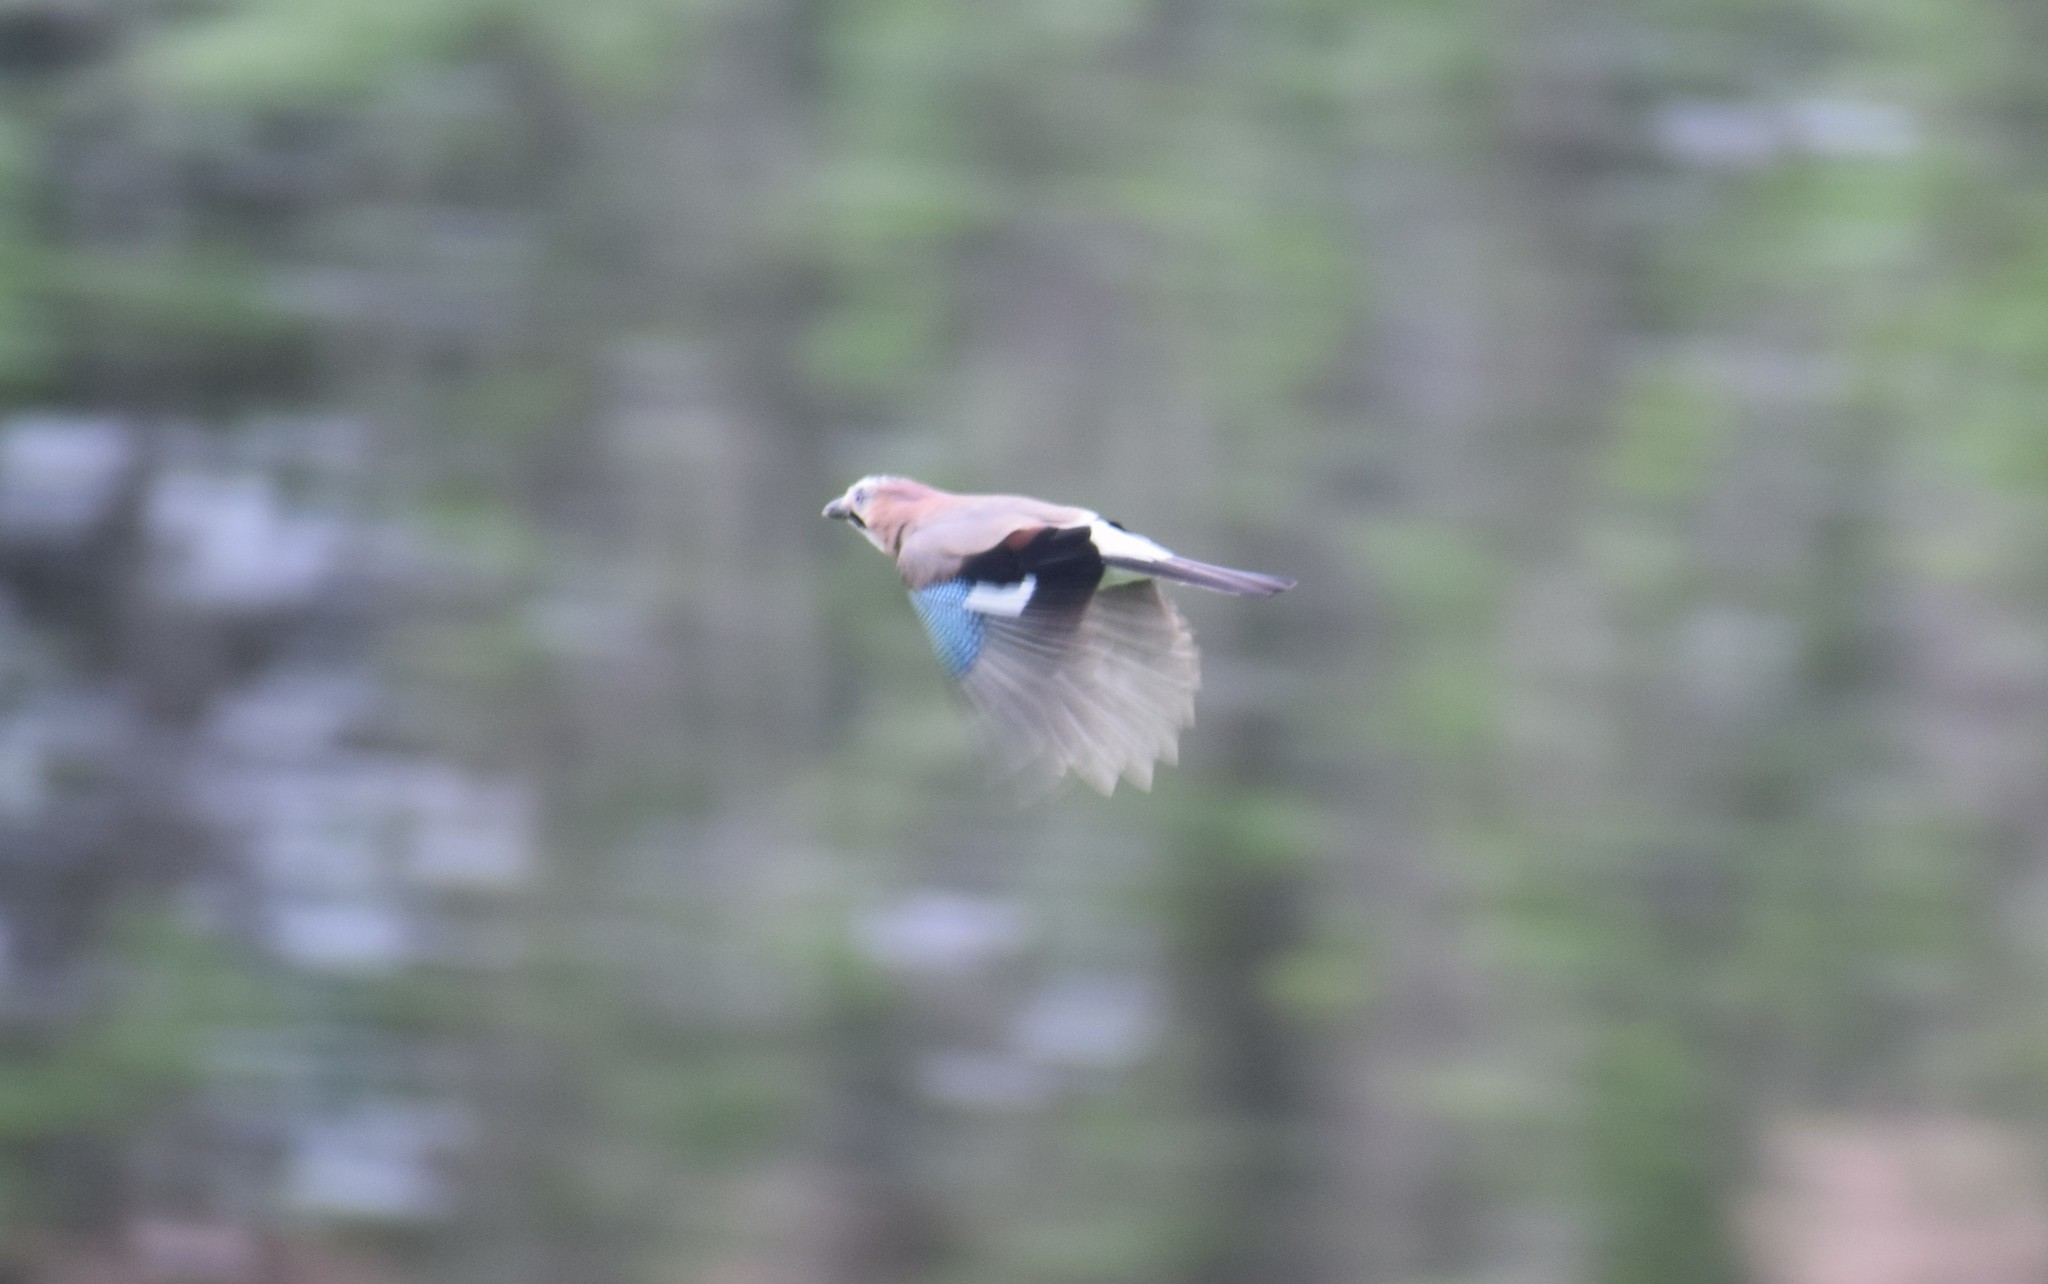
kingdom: Animalia
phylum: Chordata
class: Aves
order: Passeriformes
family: Corvidae
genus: Garrulus
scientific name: Garrulus glandarius
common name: Eurasian jay
